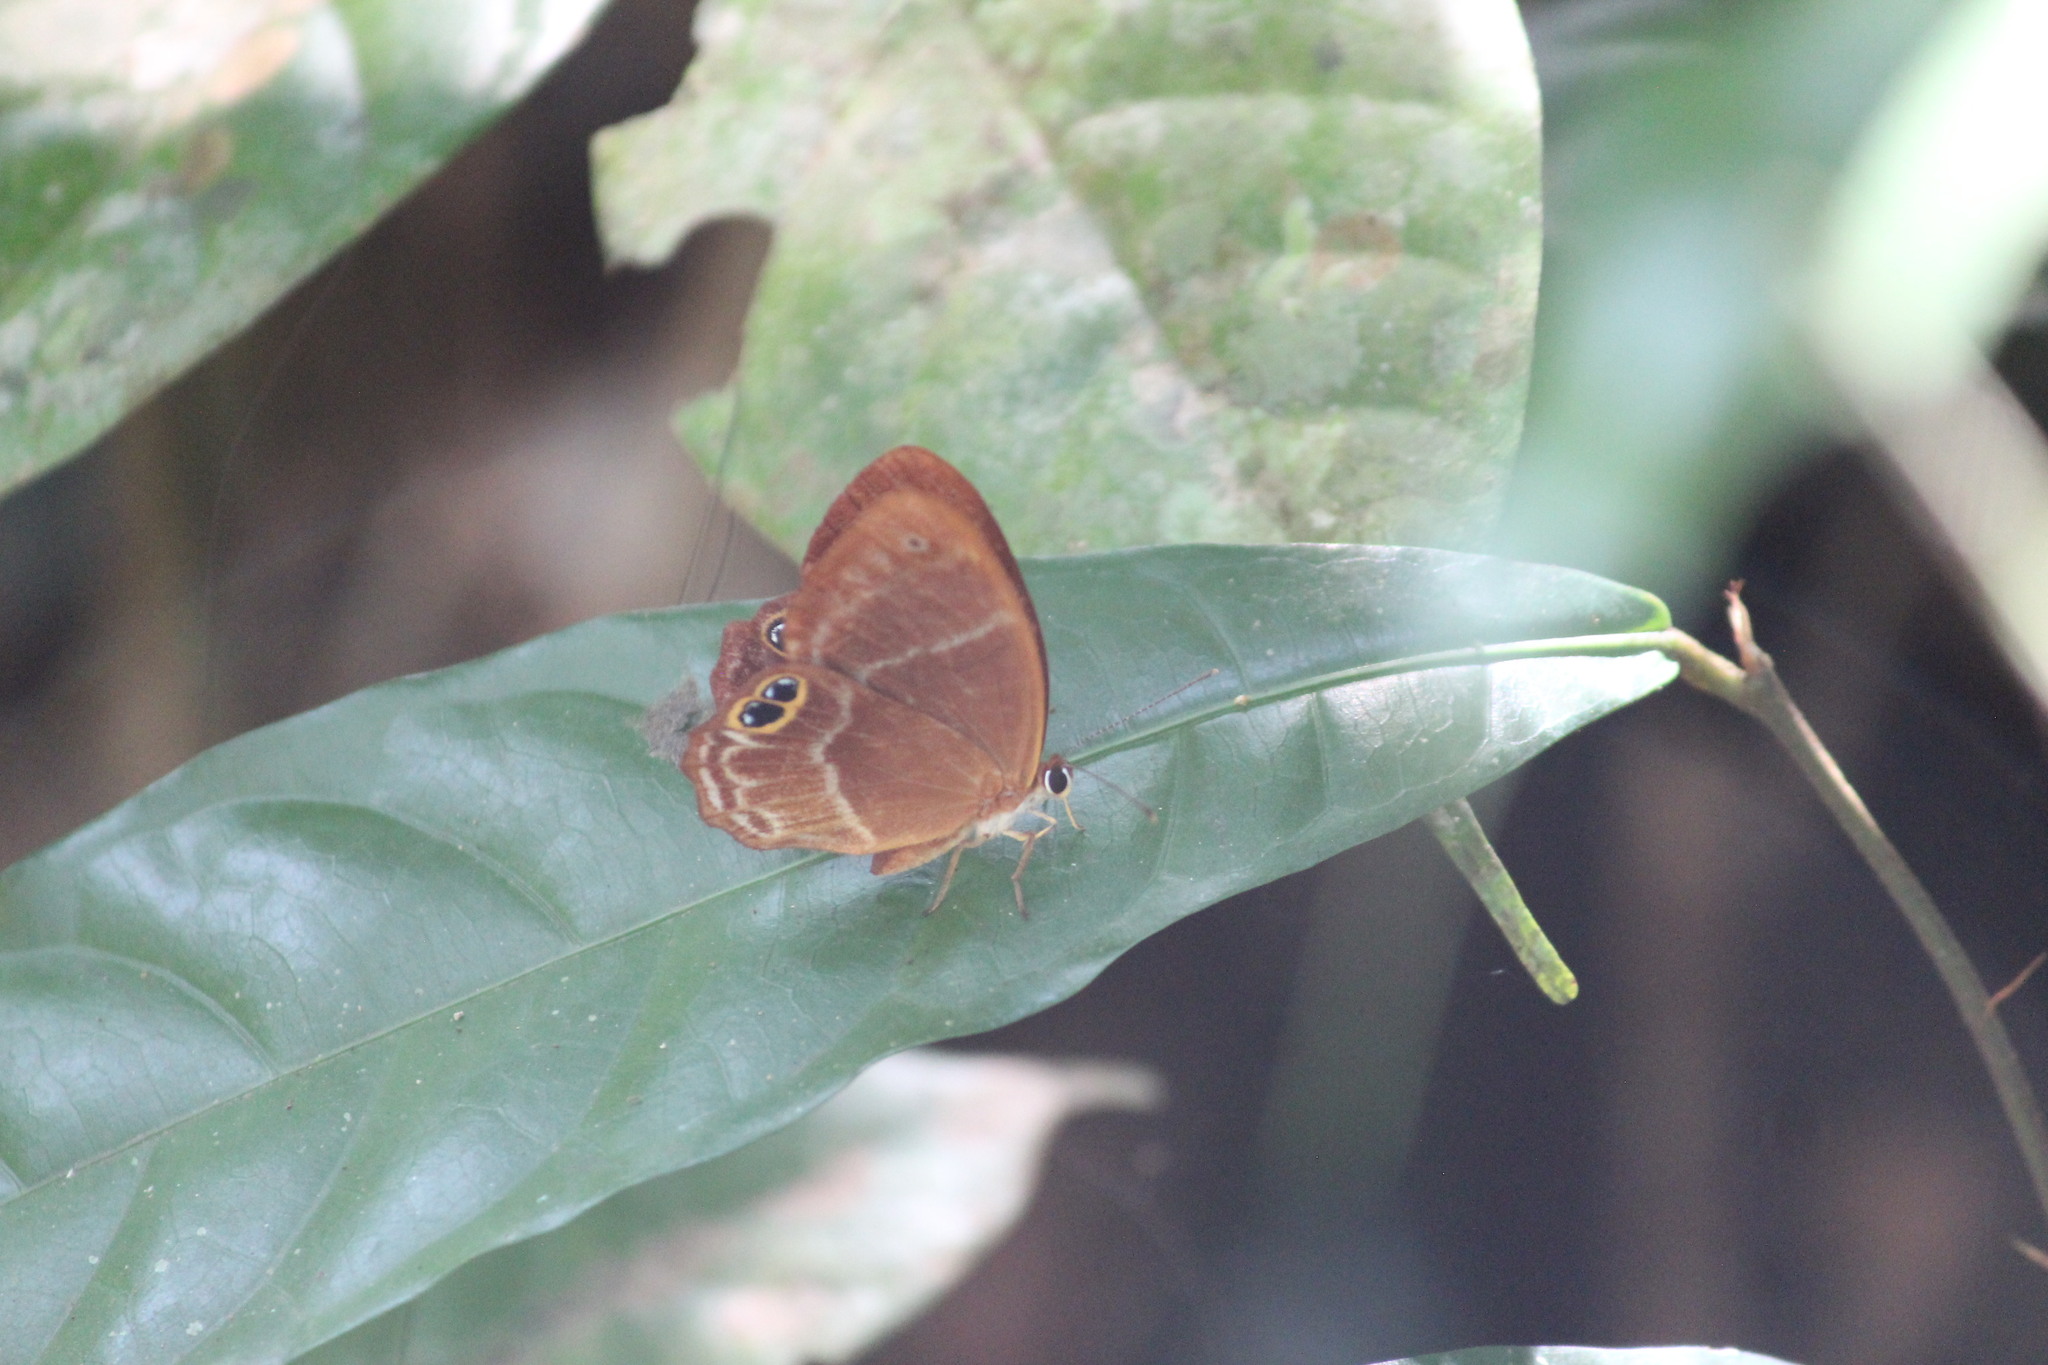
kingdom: Animalia
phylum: Arthropoda
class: Insecta
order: Lepidoptera
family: Riodinidae
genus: Afriodinia
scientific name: Afriodinia rutherfordii
